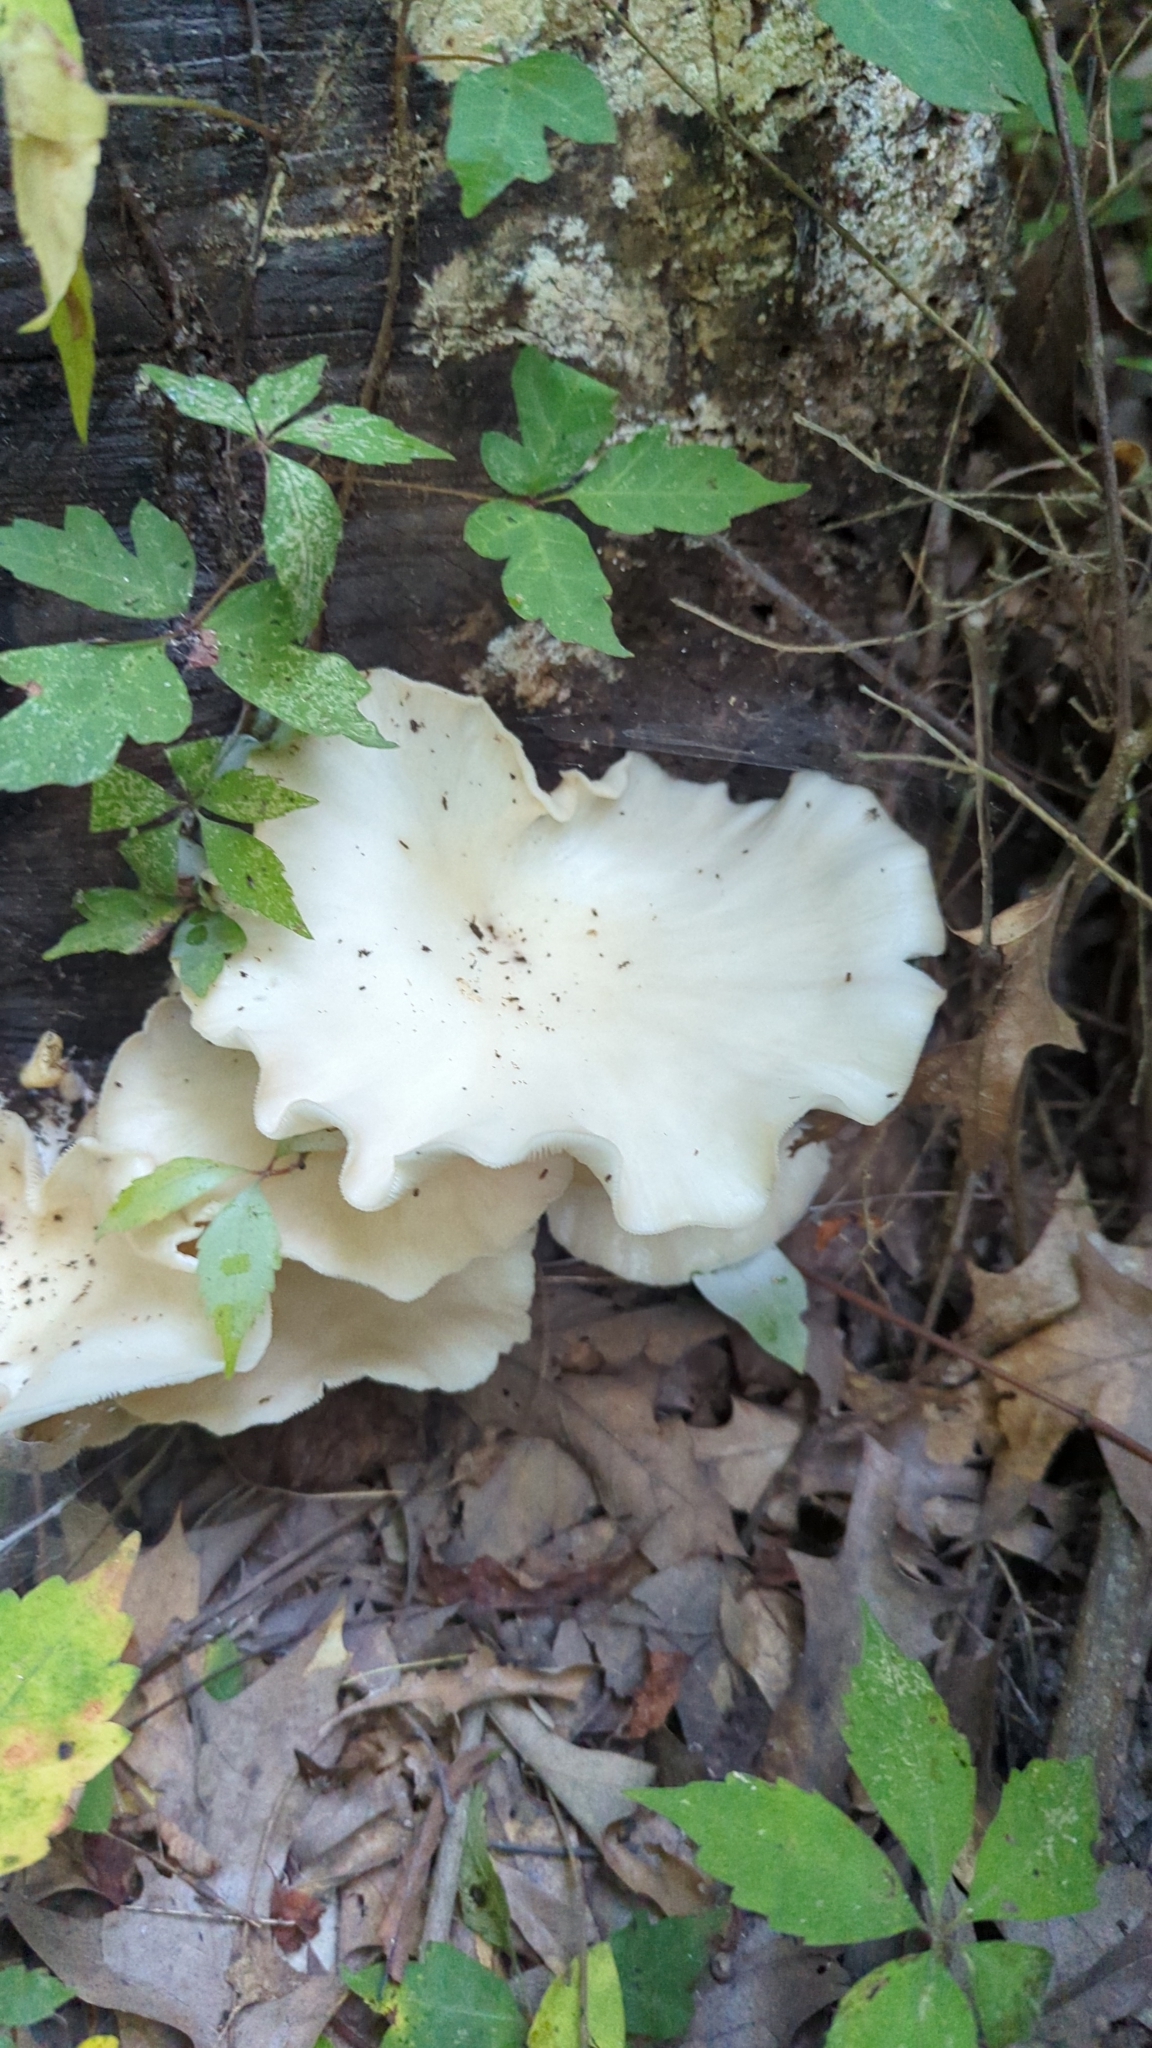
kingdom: Fungi
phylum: Basidiomycota
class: Agaricomycetes
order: Agaricales
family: Pleurotaceae
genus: Pleurotus
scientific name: Pleurotus pulmonarius
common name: Pale oyster
